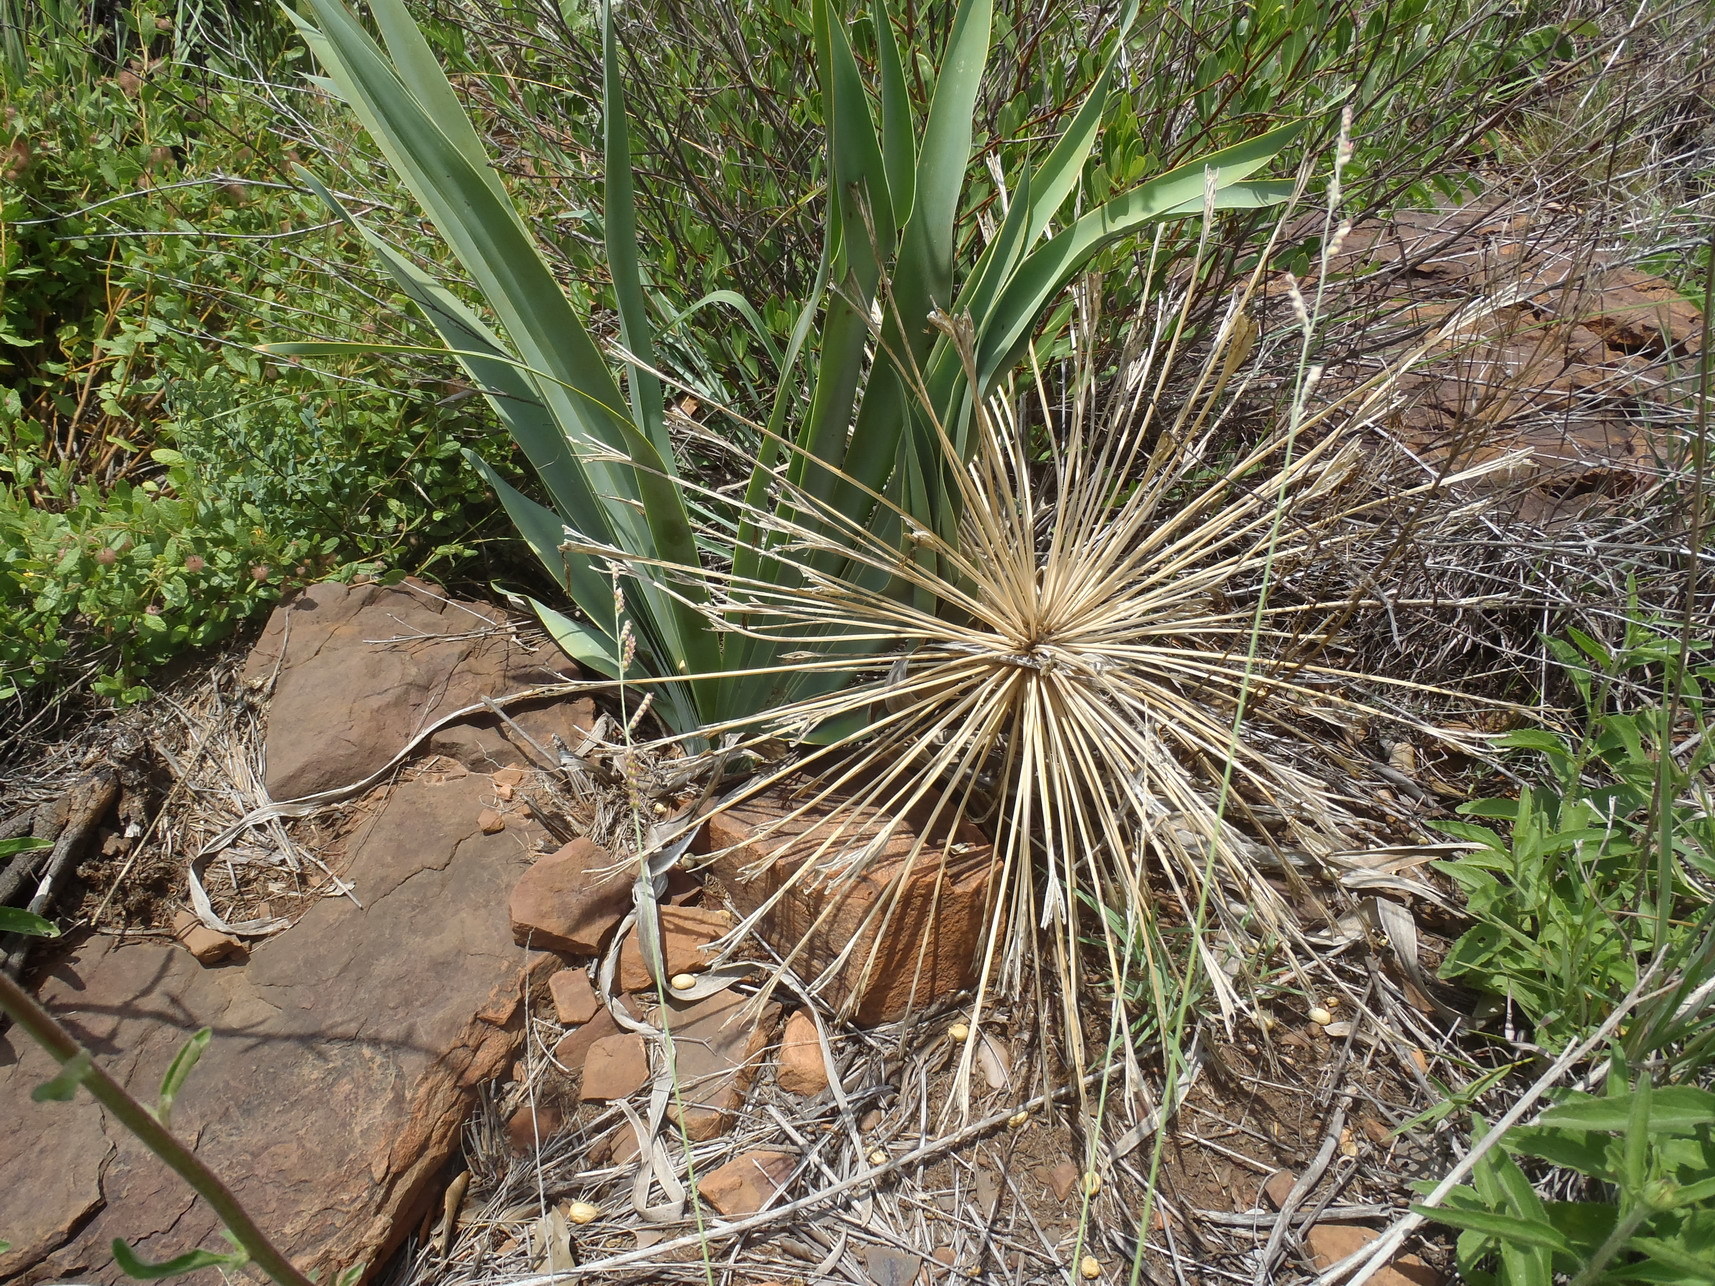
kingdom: Plantae
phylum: Tracheophyta
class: Liliopsida
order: Asparagales
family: Amaryllidaceae
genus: Boophone
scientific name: Boophone disticha
